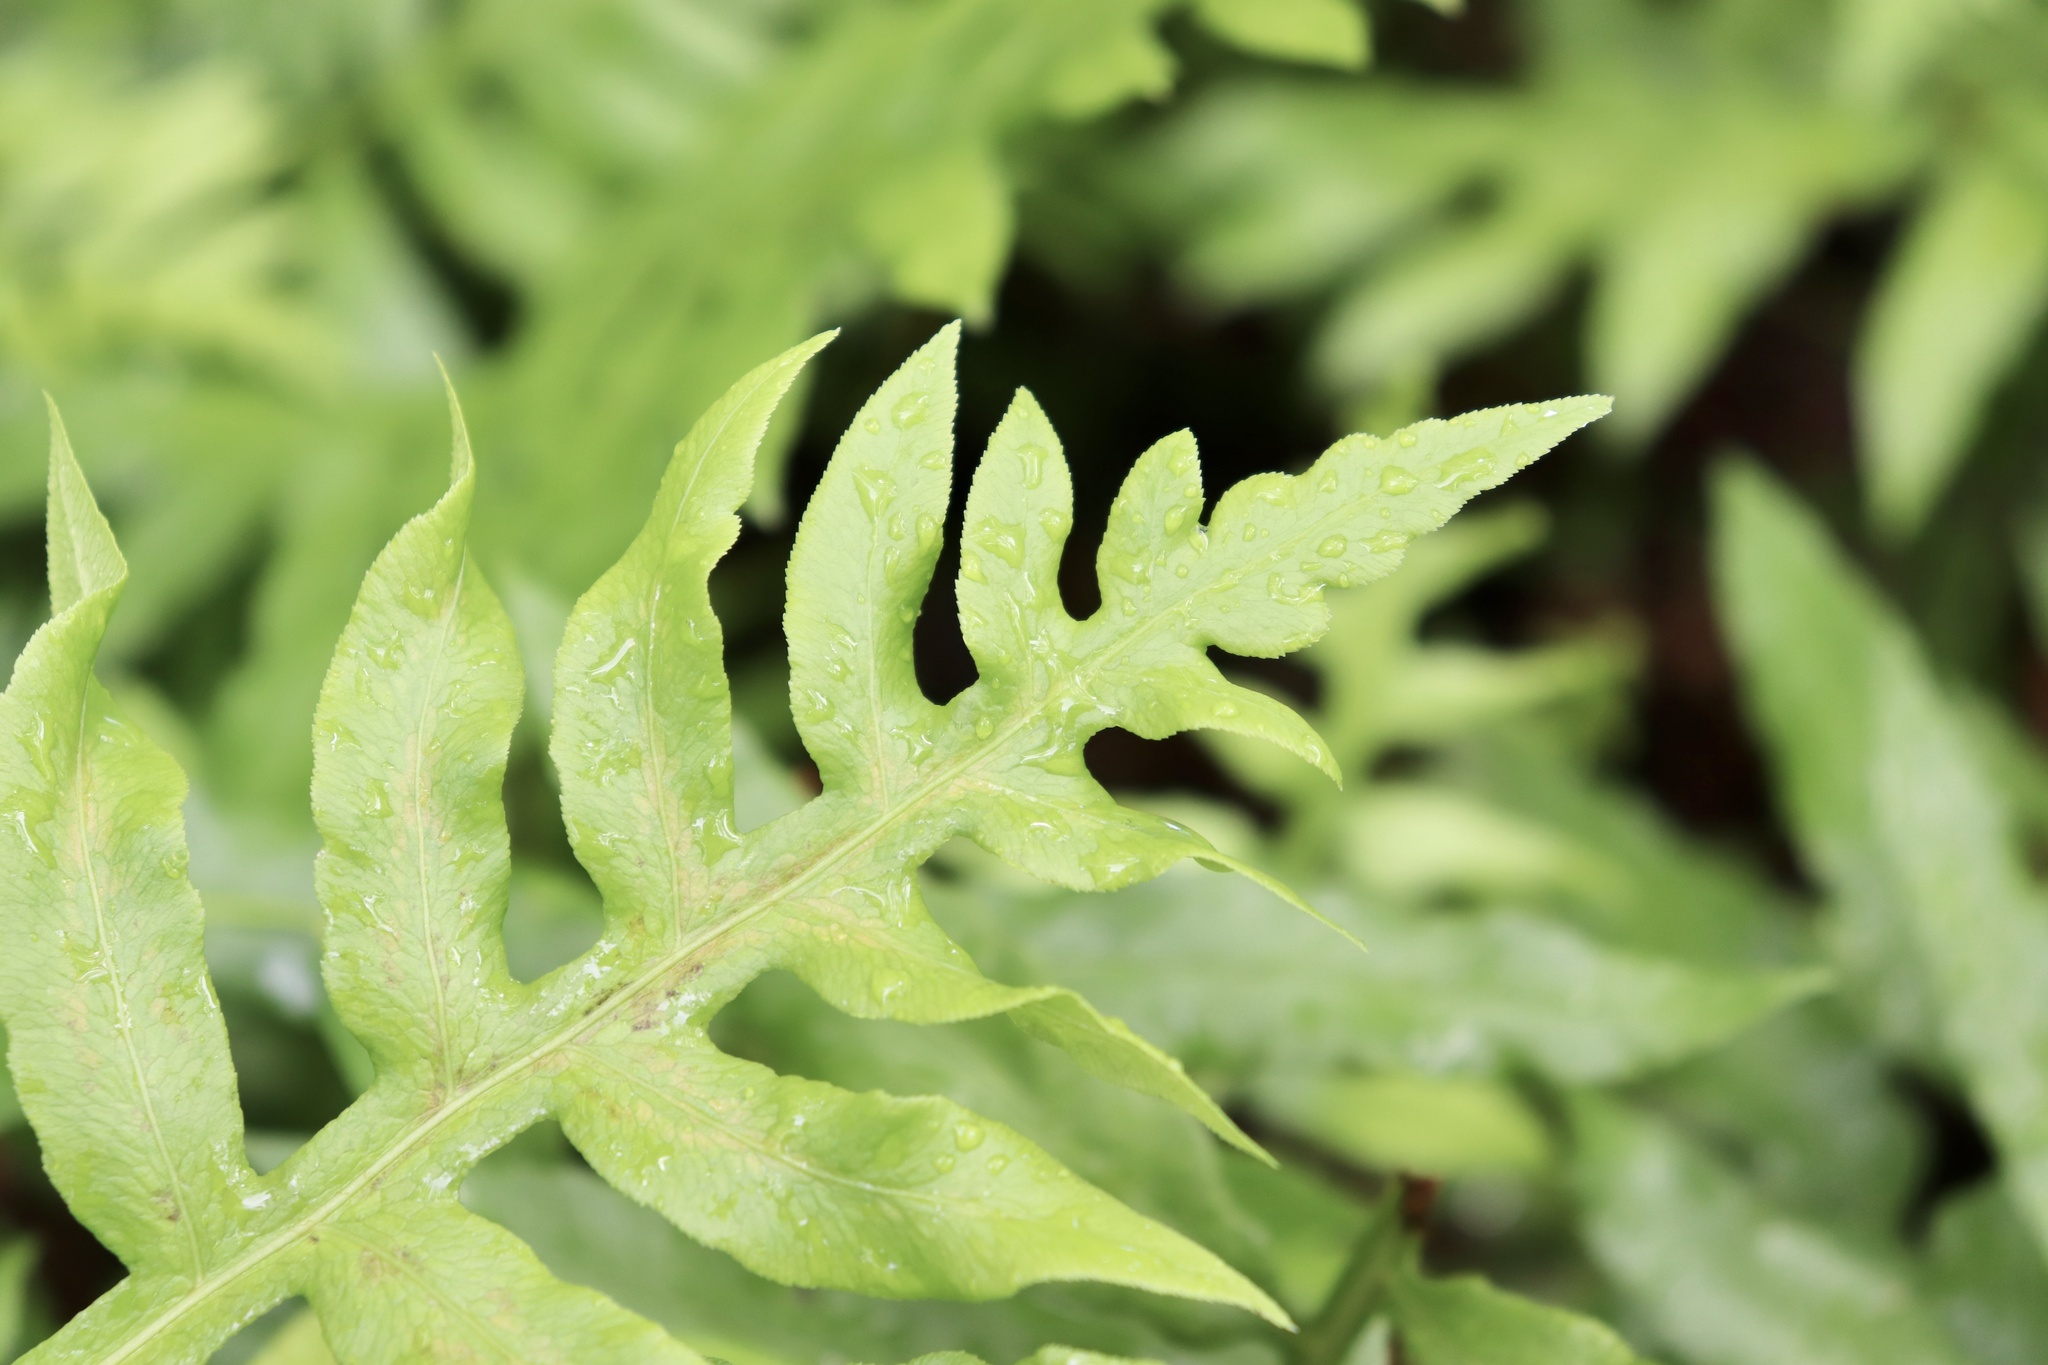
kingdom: Plantae
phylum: Tracheophyta
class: Polypodiopsida
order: Polypodiales
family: Blechnaceae
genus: Lorinseria
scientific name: Lorinseria areolata
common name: Dwarf chain fern
